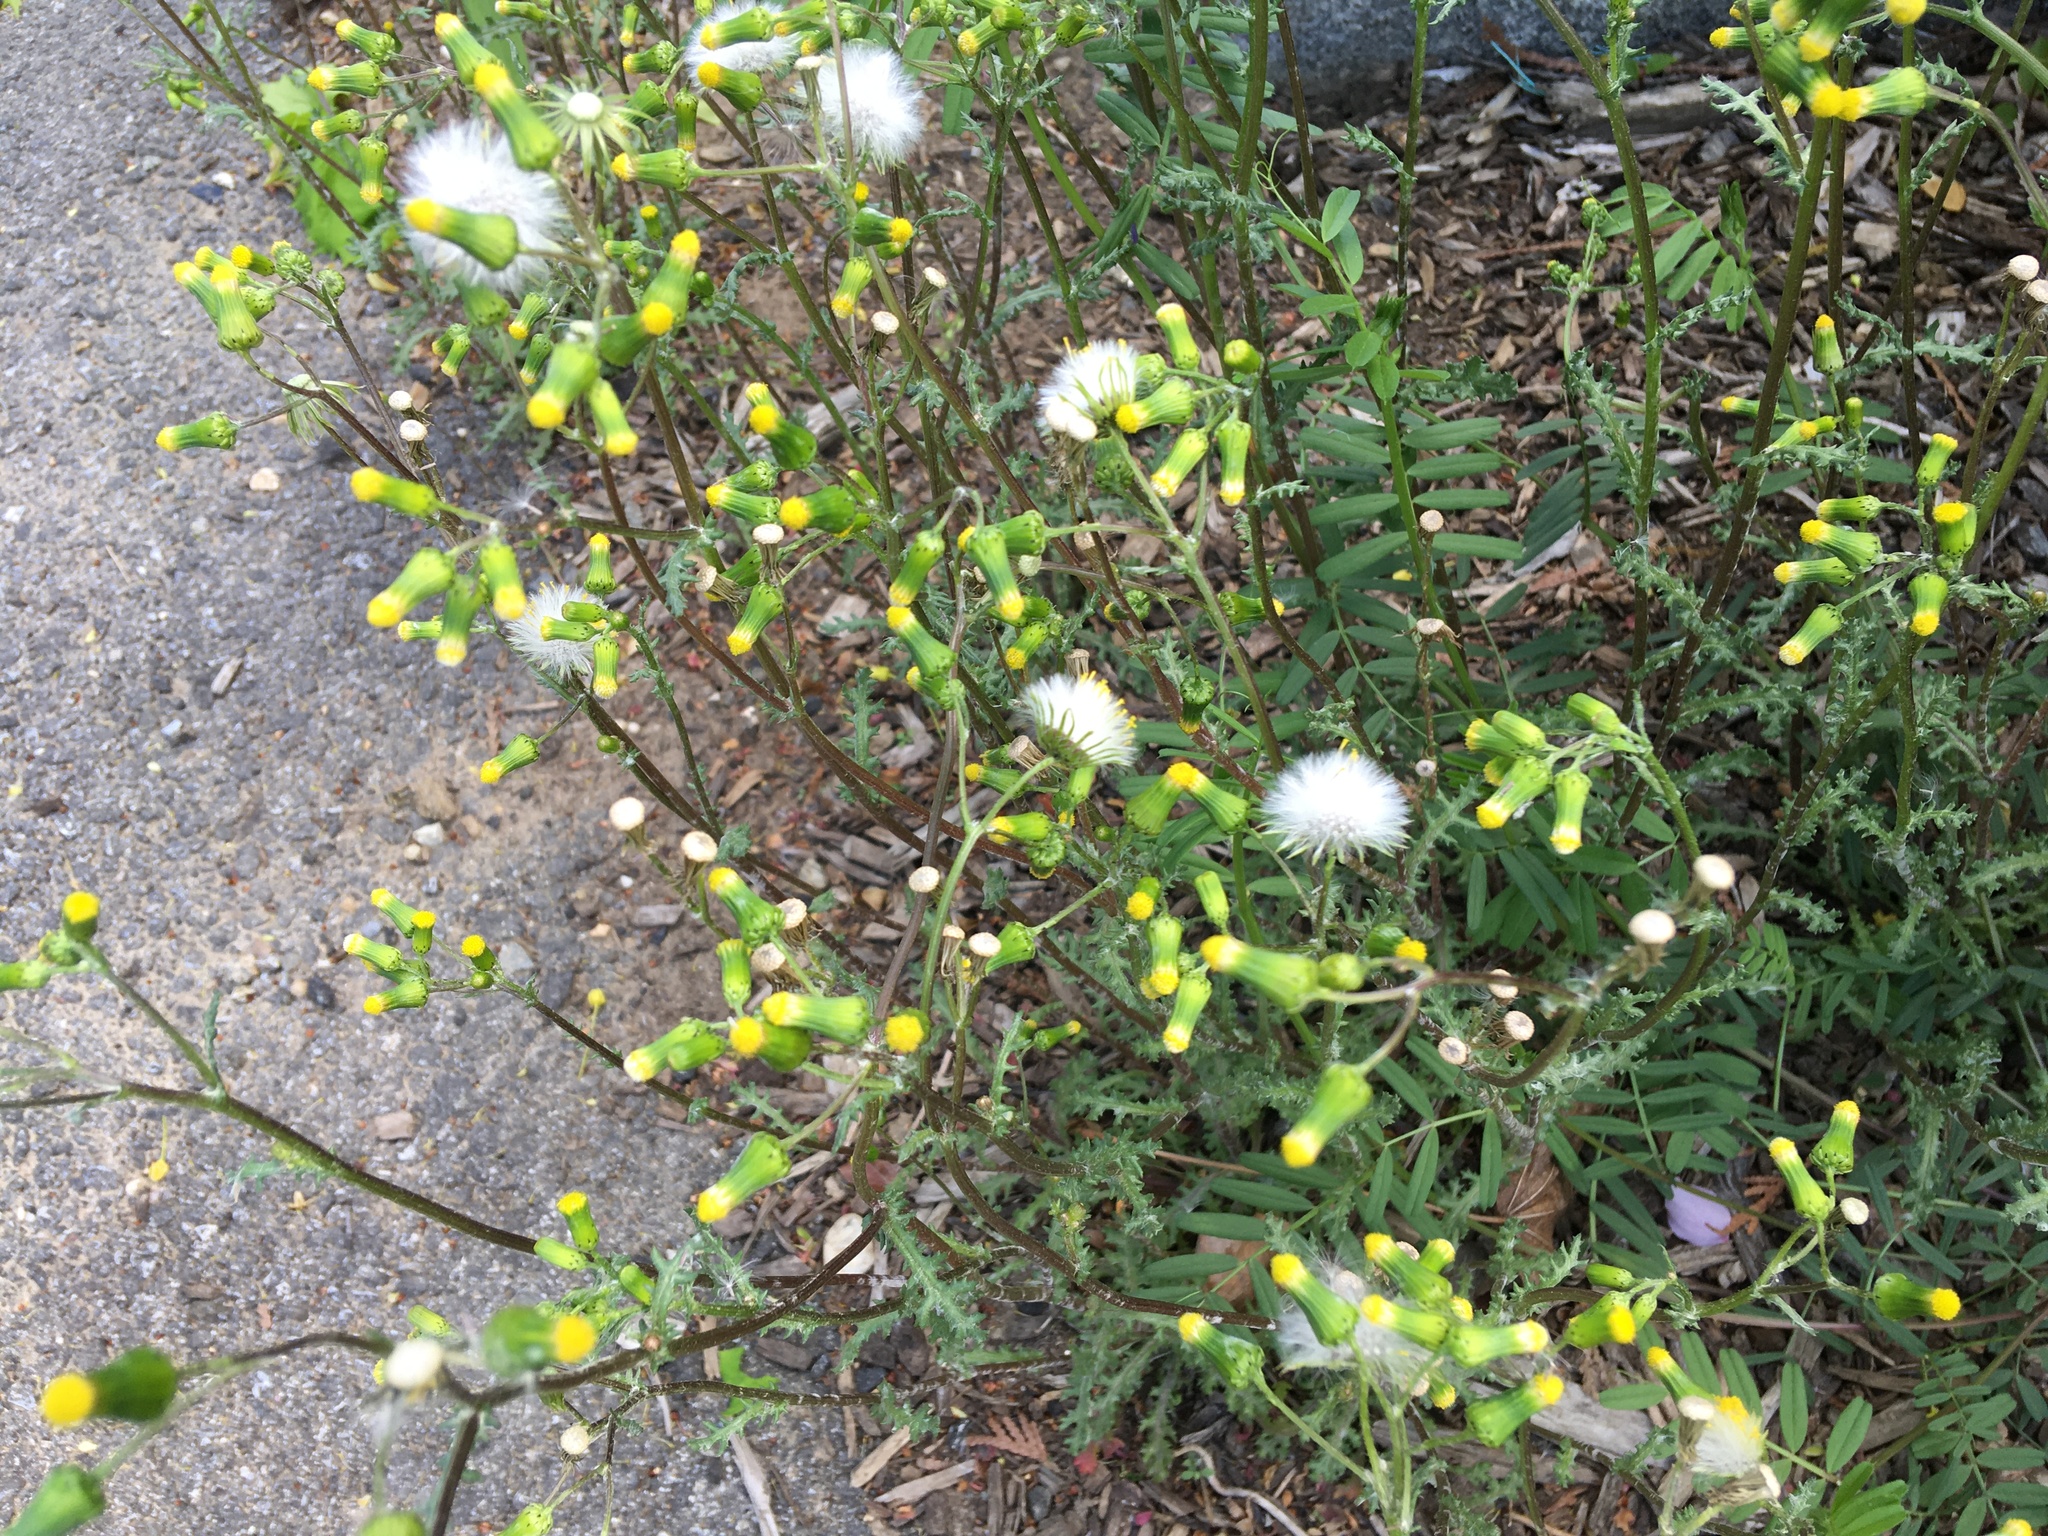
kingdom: Plantae
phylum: Tracheophyta
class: Magnoliopsida
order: Asterales
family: Asteraceae
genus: Senecio
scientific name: Senecio vulgaris
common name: Old-man-in-the-spring
